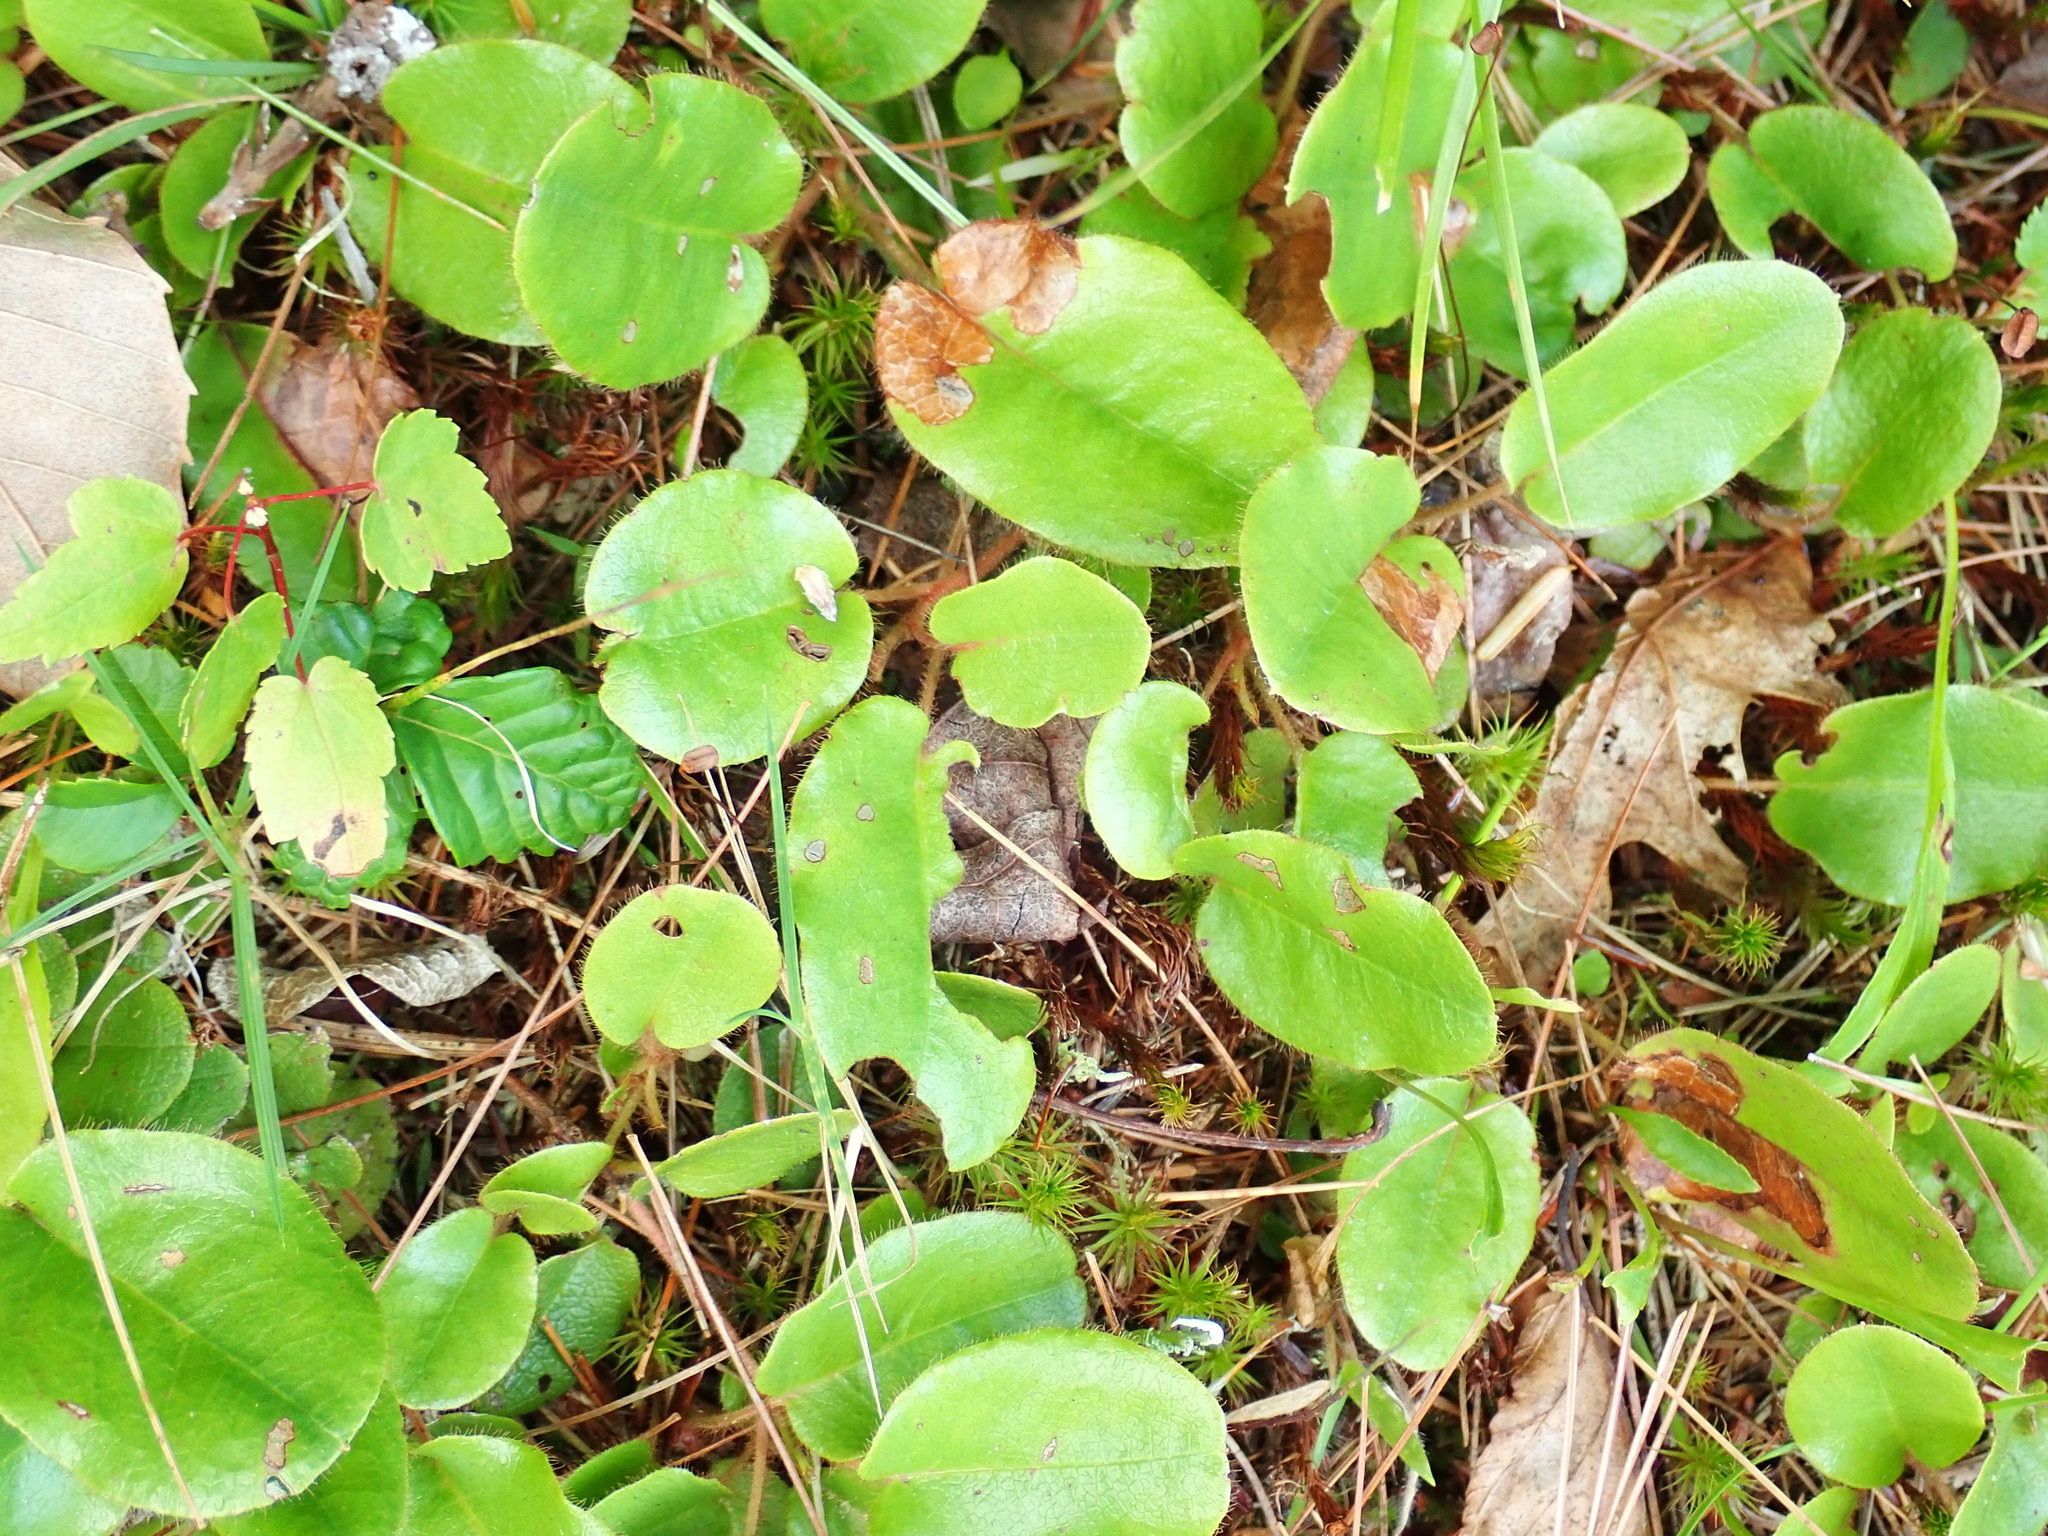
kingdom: Plantae
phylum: Tracheophyta
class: Magnoliopsida
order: Ericales
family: Ericaceae
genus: Epigaea
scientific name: Epigaea repens
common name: Gravelroot
